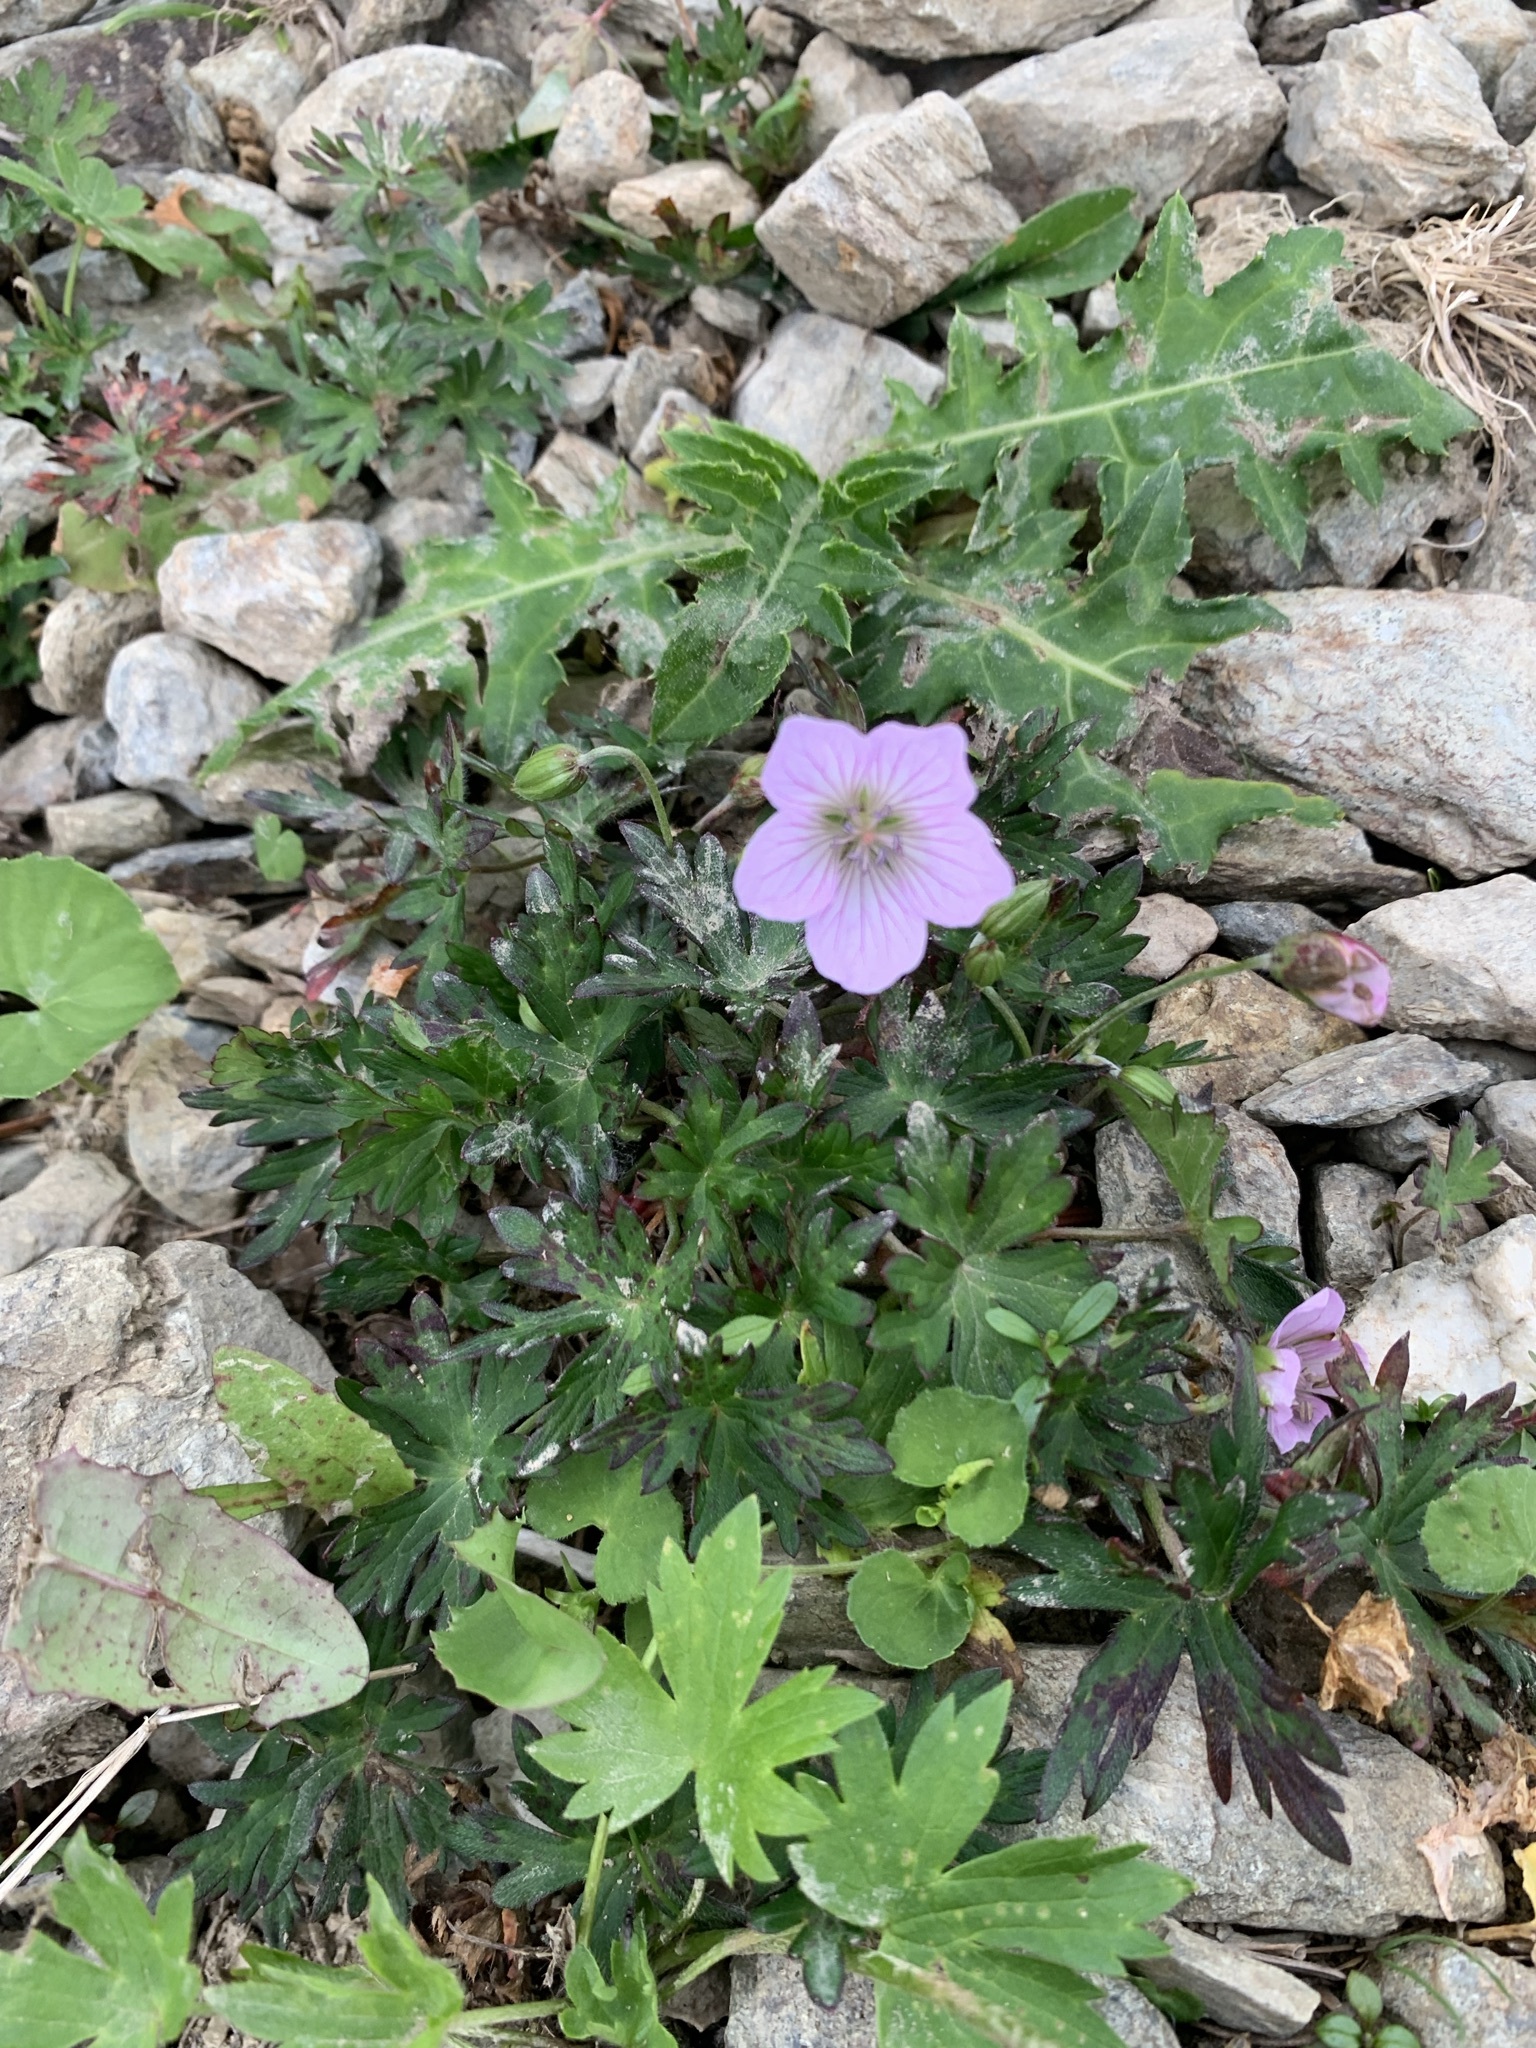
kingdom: Plantae
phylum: Tracheophyta
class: Magnoliopsida
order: Geraniales
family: Geraniaceae
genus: Geranium
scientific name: Geranium yesoense
